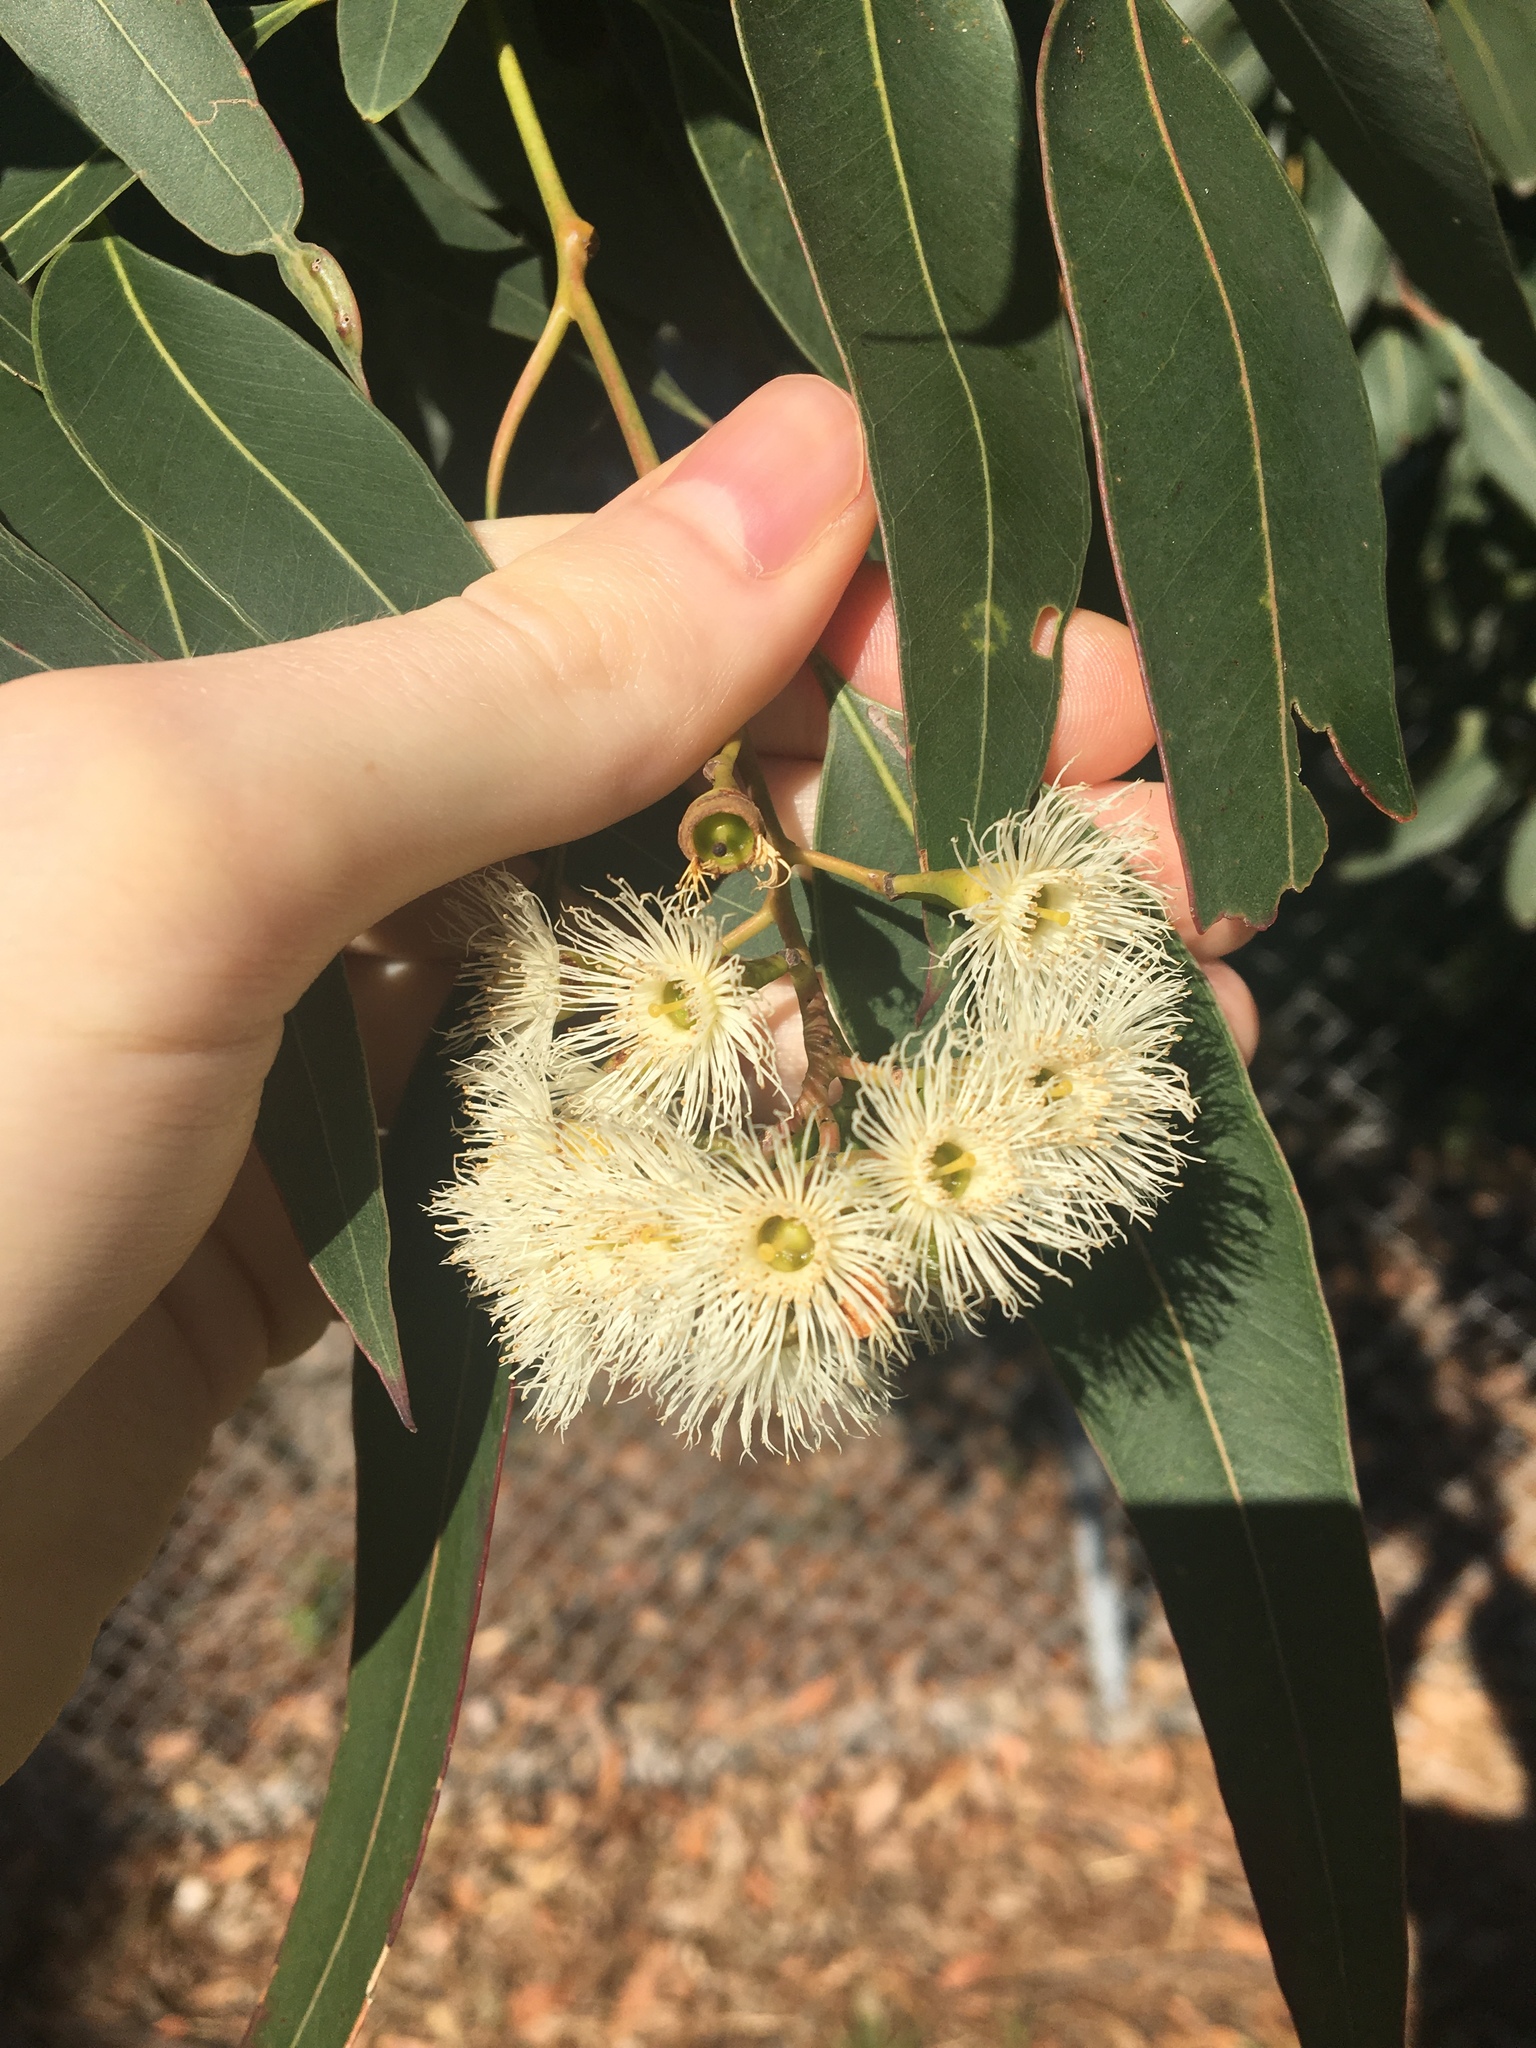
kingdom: Plantae
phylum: Tracheophyta
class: Magnoliopsida
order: Myrtales
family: Myrtaceae
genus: Eucalyptus
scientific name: Eucalyptus paniculata
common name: Gray ironbark
